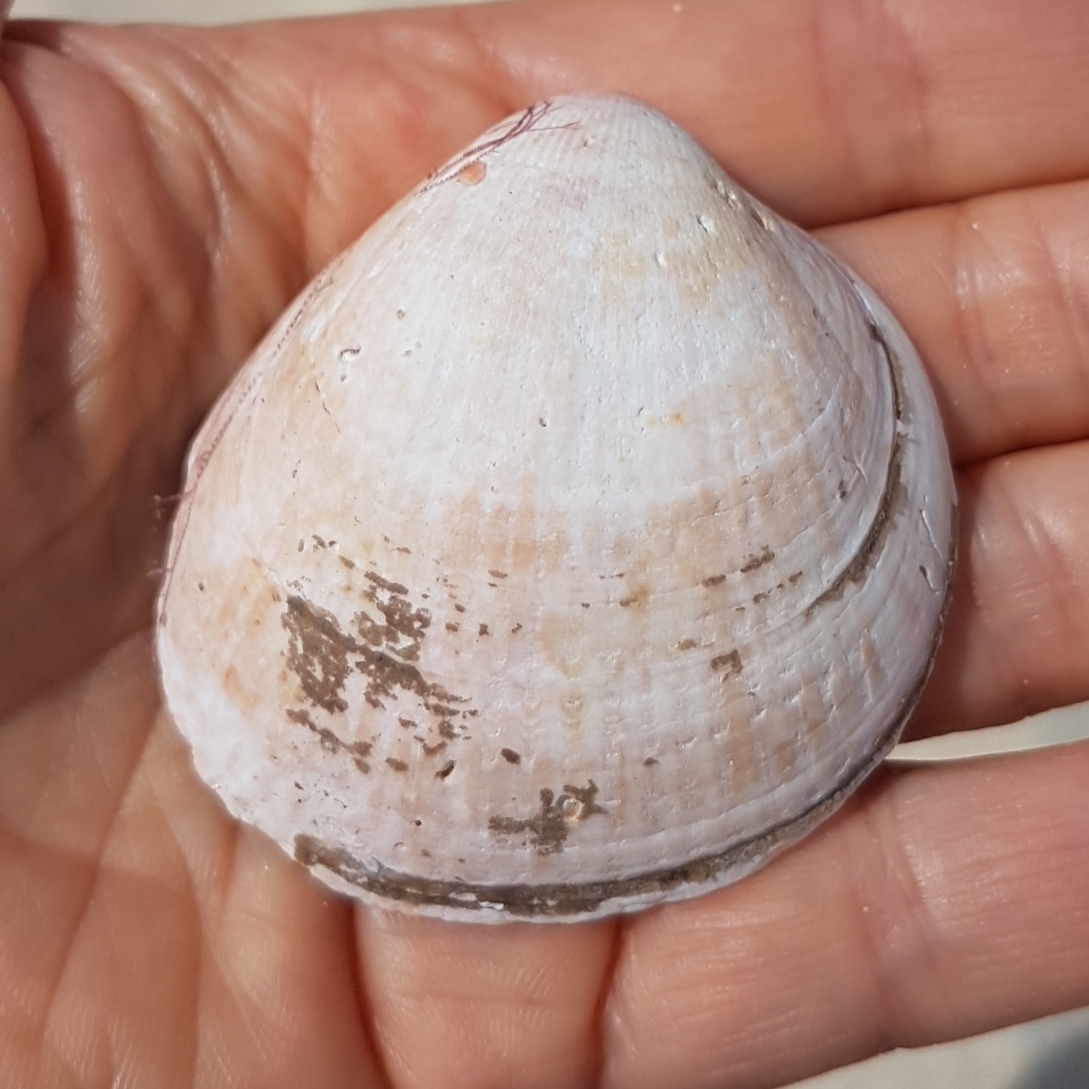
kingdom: Animalia
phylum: Mollusca
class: Bivalvia
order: Cardiida
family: Cardiidae
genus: Laevicardium
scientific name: Laevicardium crassum
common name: Norway cockle
